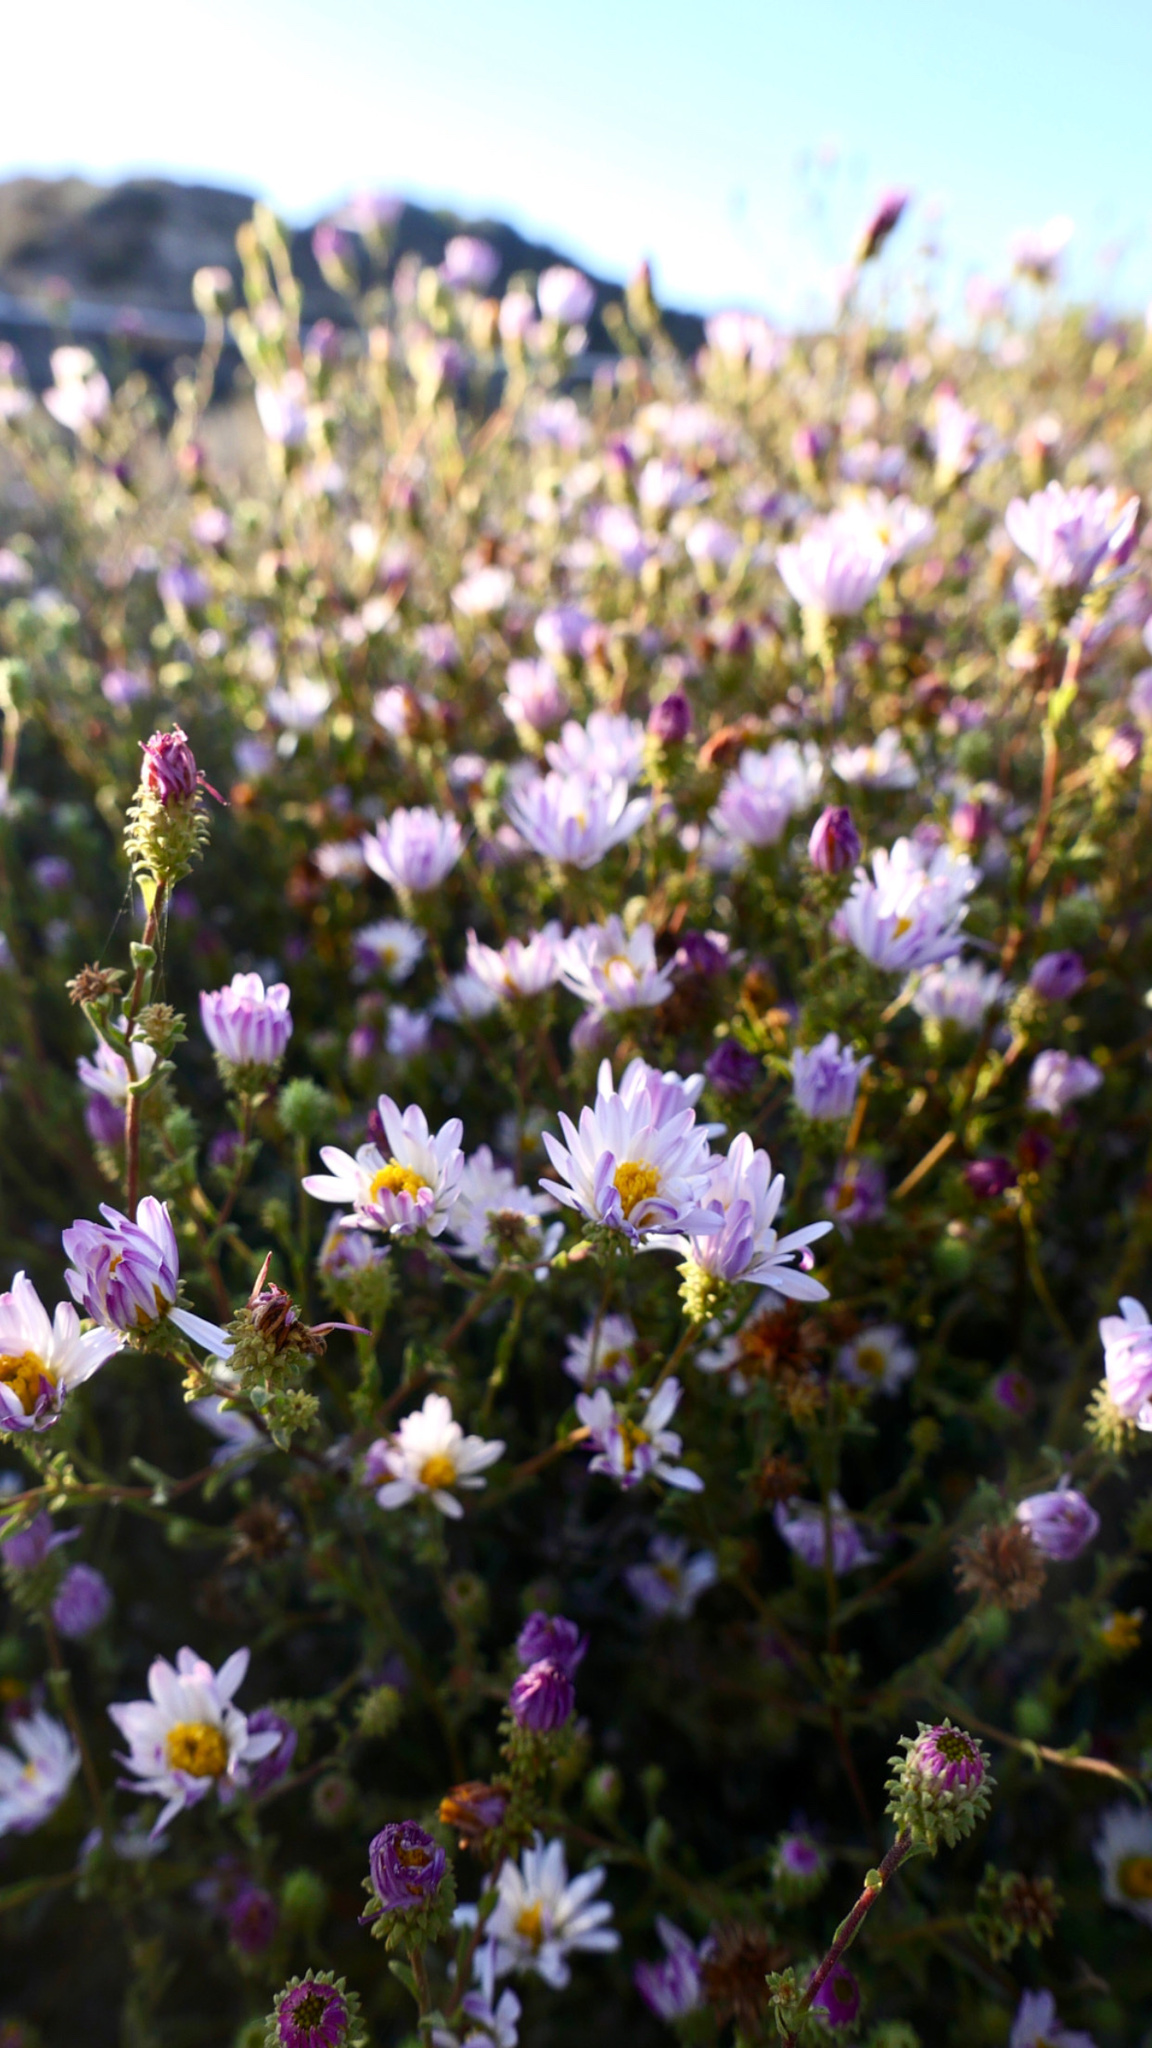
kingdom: Plantae
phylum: Tracheophyta
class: Magnoliopsida
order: Asterales
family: Asteraceae
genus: Corethrogyne
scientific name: Corethrogyne filaginifolia
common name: Sand-aster
